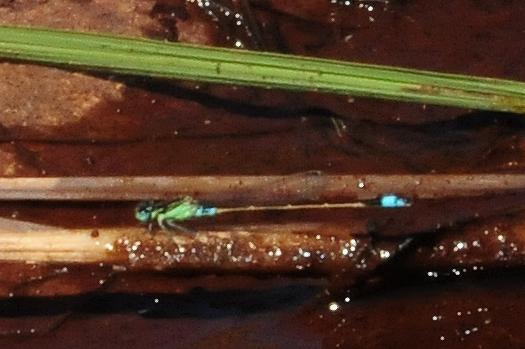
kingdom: Animalia
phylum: Arthropoda
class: Insecta
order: Odonata
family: Coenagrionidae
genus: Ischnura
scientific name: Ischnura senegalensis
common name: Tropical bluetail
